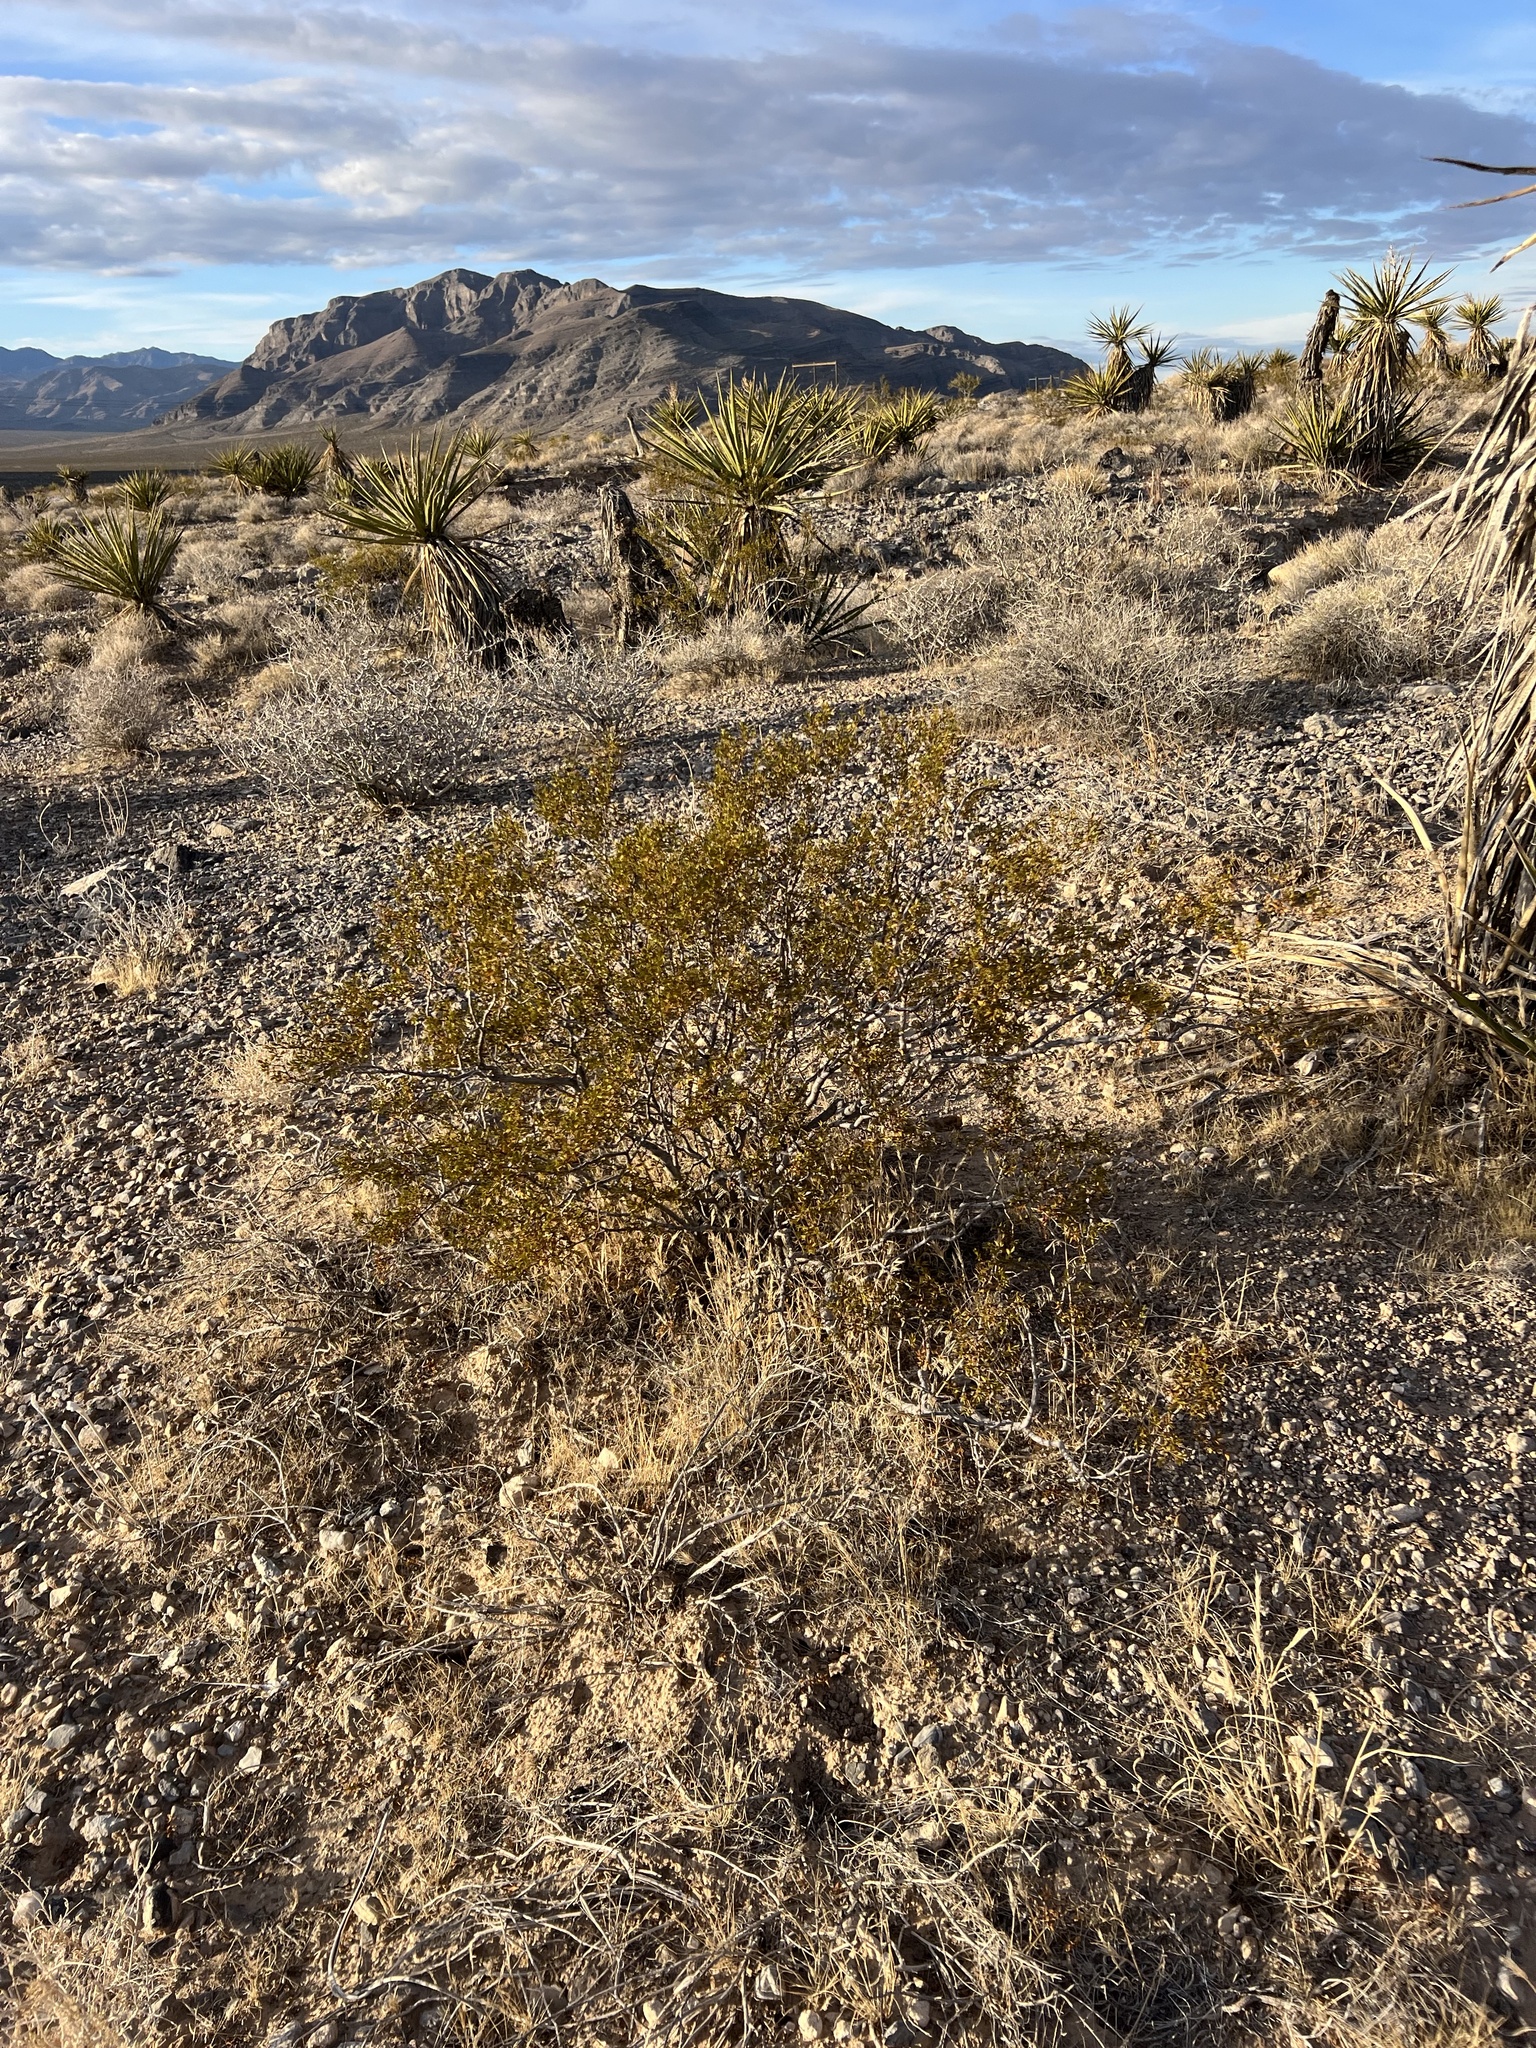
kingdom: Plantae
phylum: Tracheophyta
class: Magnoliopsida
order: Zygophyllales
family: Zygophyllaceae
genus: Larrea
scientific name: Larrea tridentata
